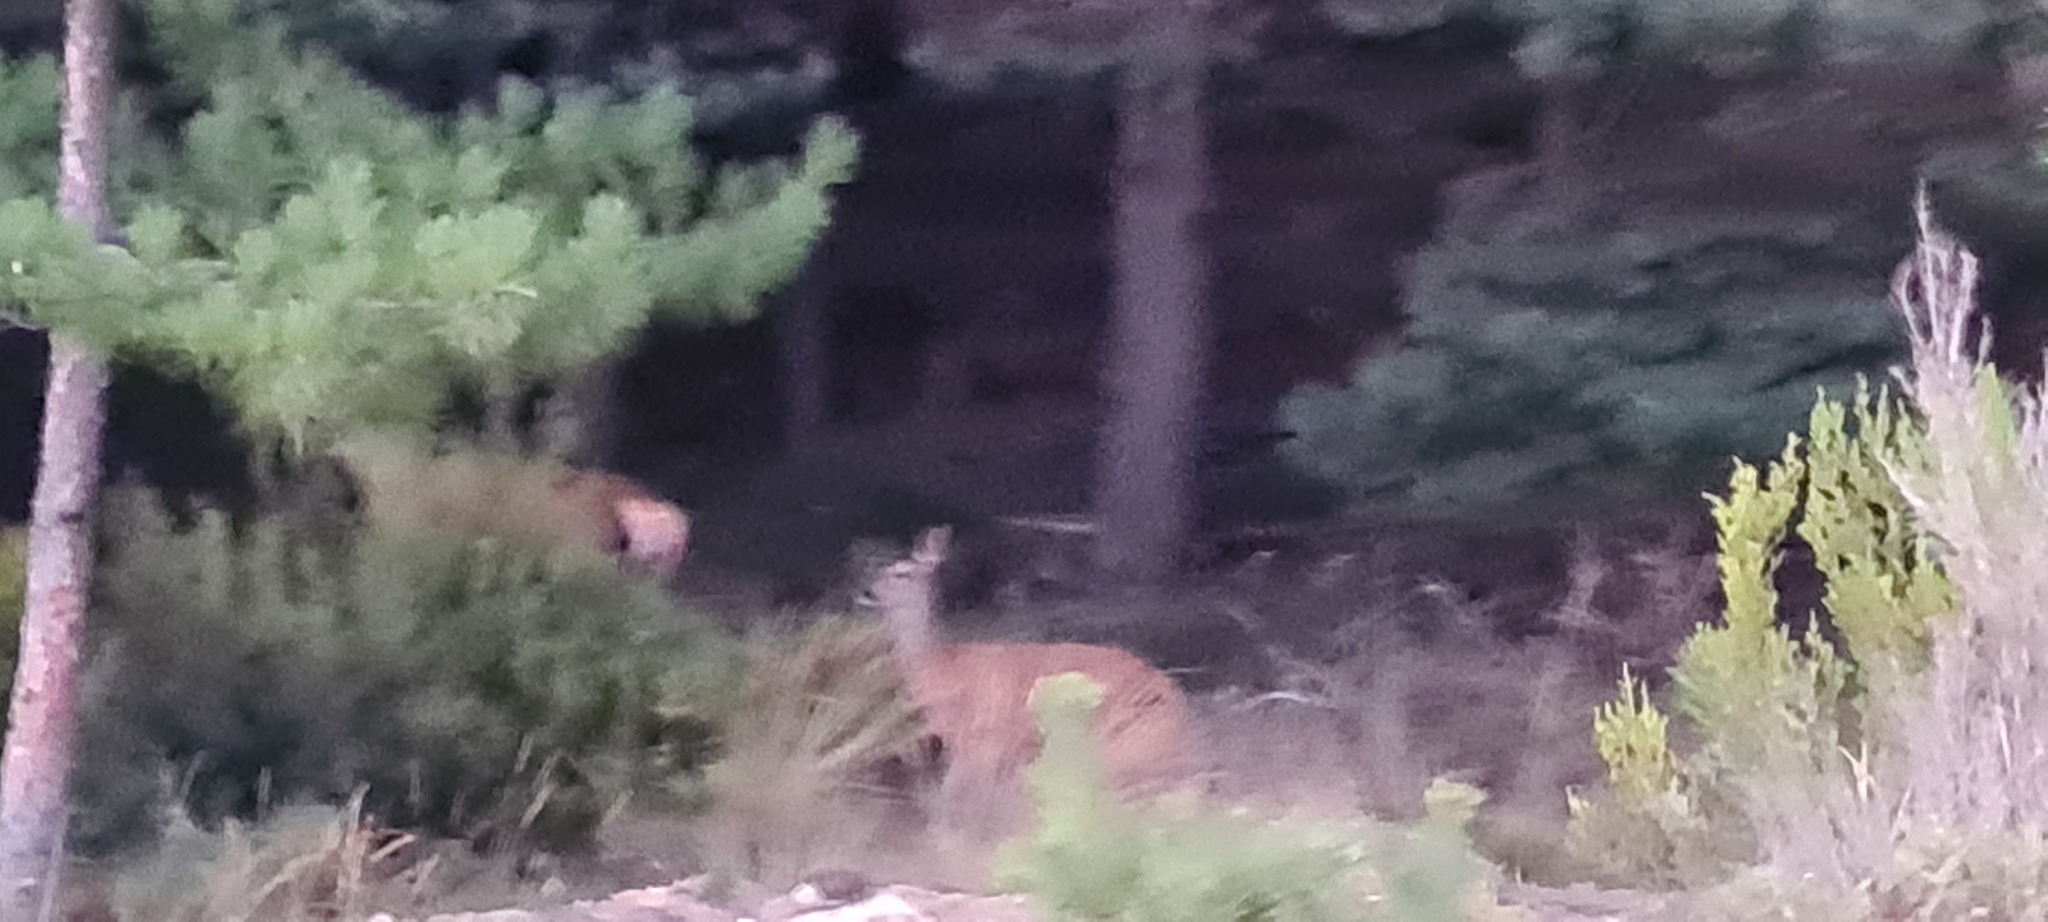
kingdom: Animalia
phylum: Chordata
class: Mammalia
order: Artiodactyla
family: Cervidae
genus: Capreolus
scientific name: Capreolus capreolus
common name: Western roe deer
